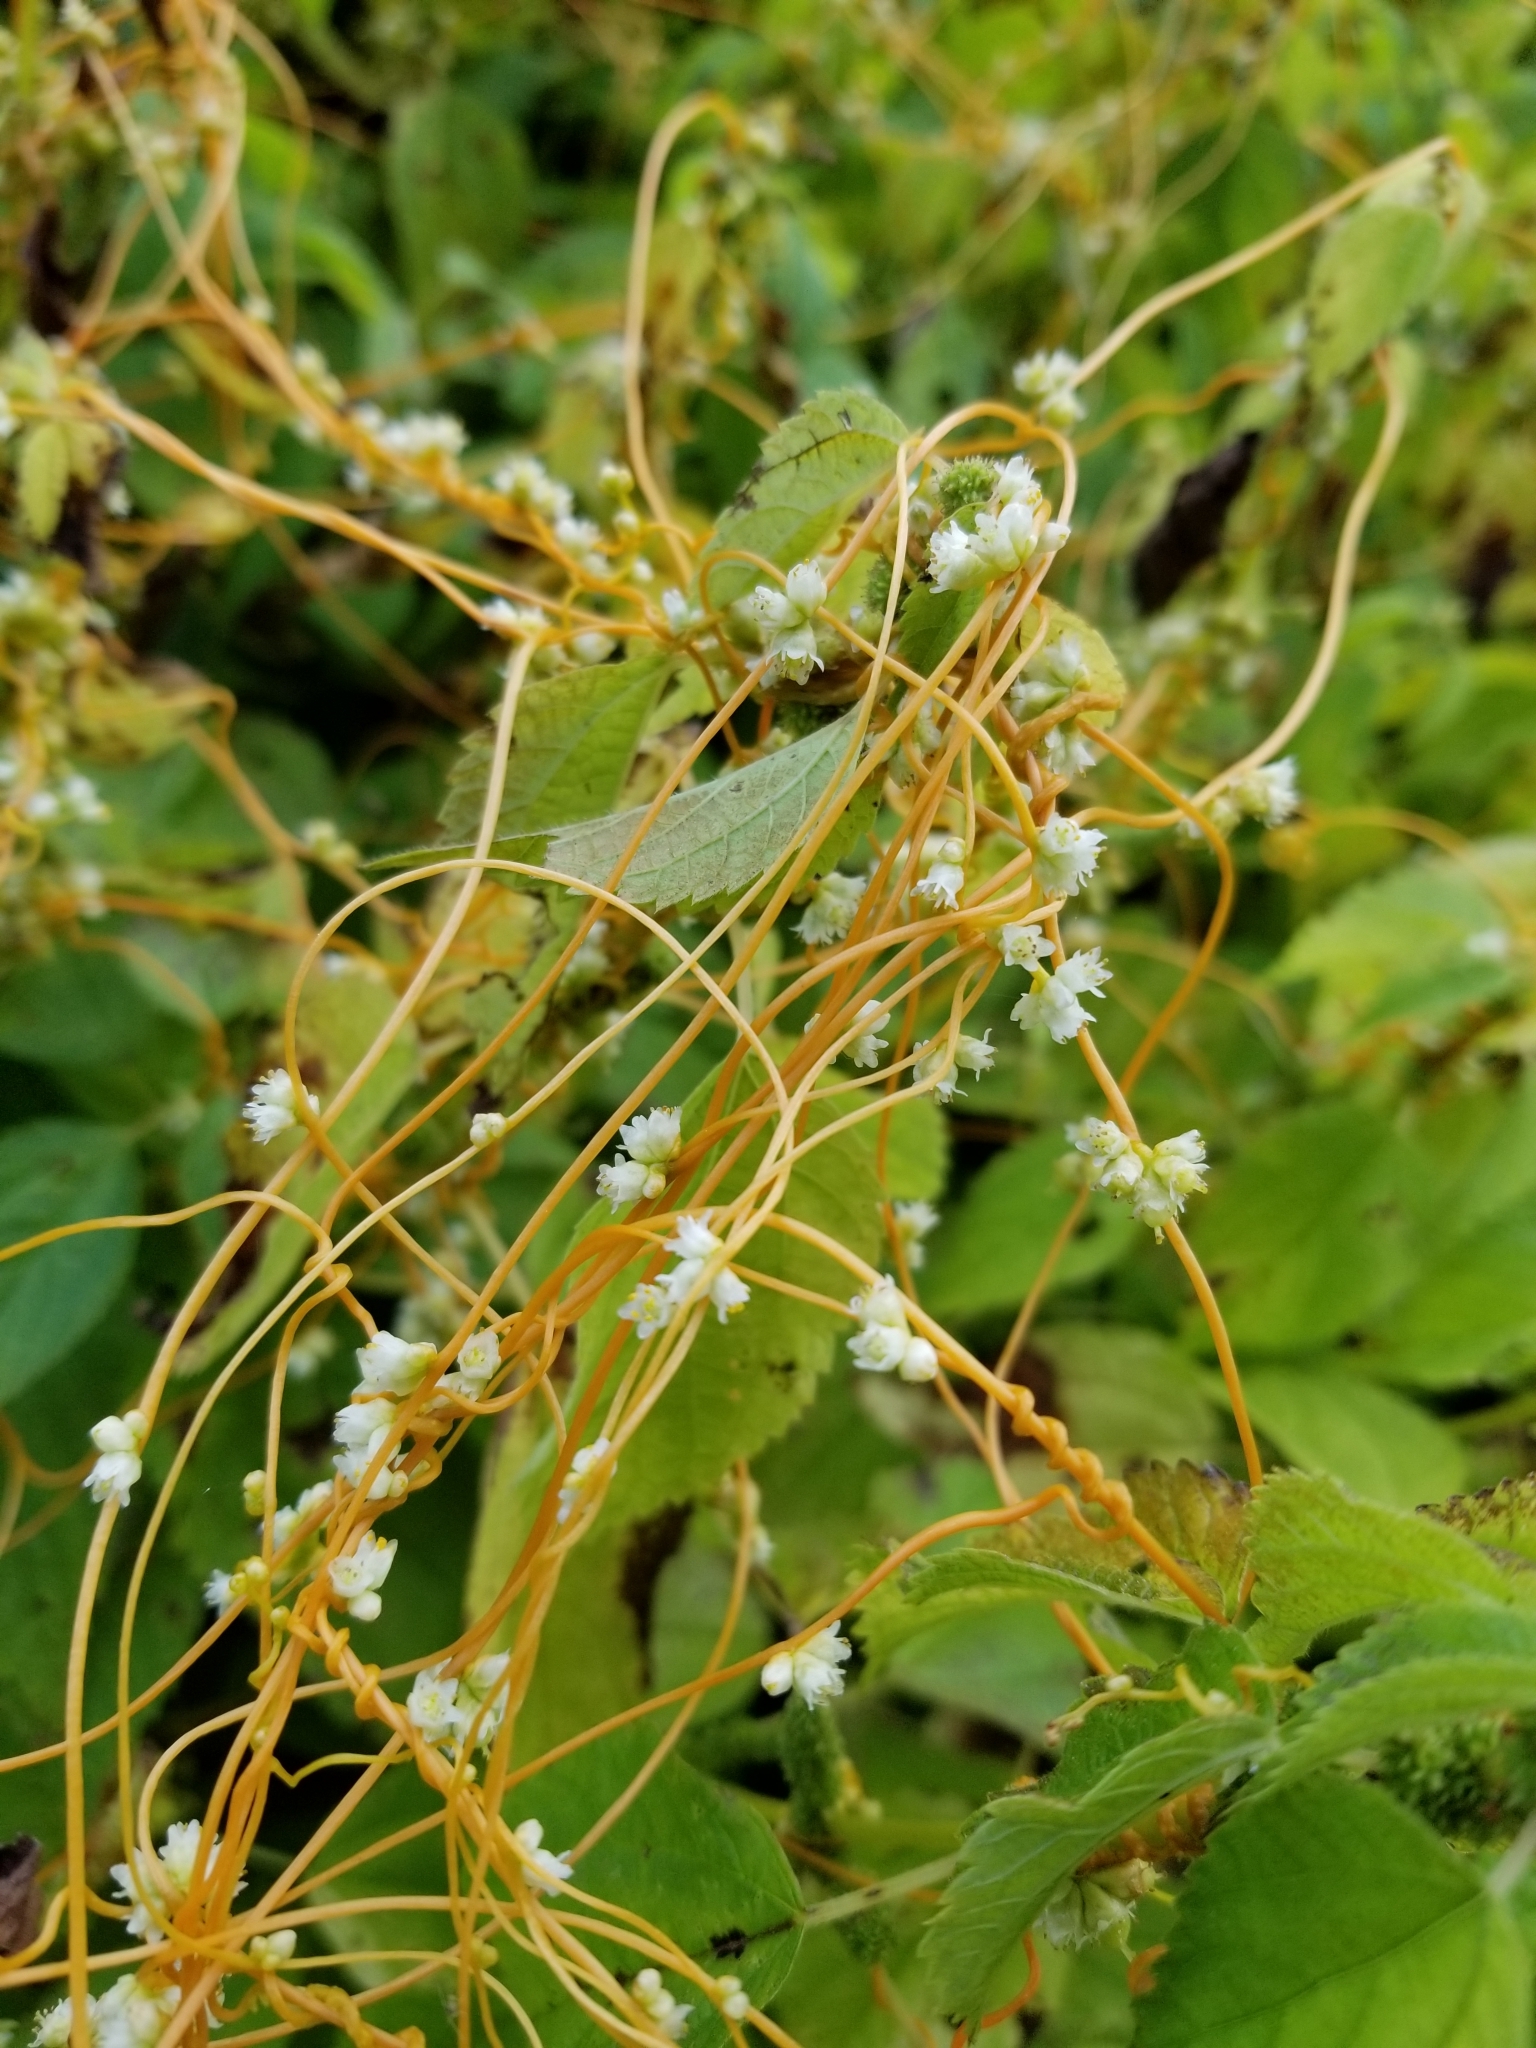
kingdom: Plantae
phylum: Tracheophyta
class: Magnoliopsida
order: Solanales
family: Convolvulaceae
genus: Cuscuta
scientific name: Cuscuta gronovii
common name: Common dodder
